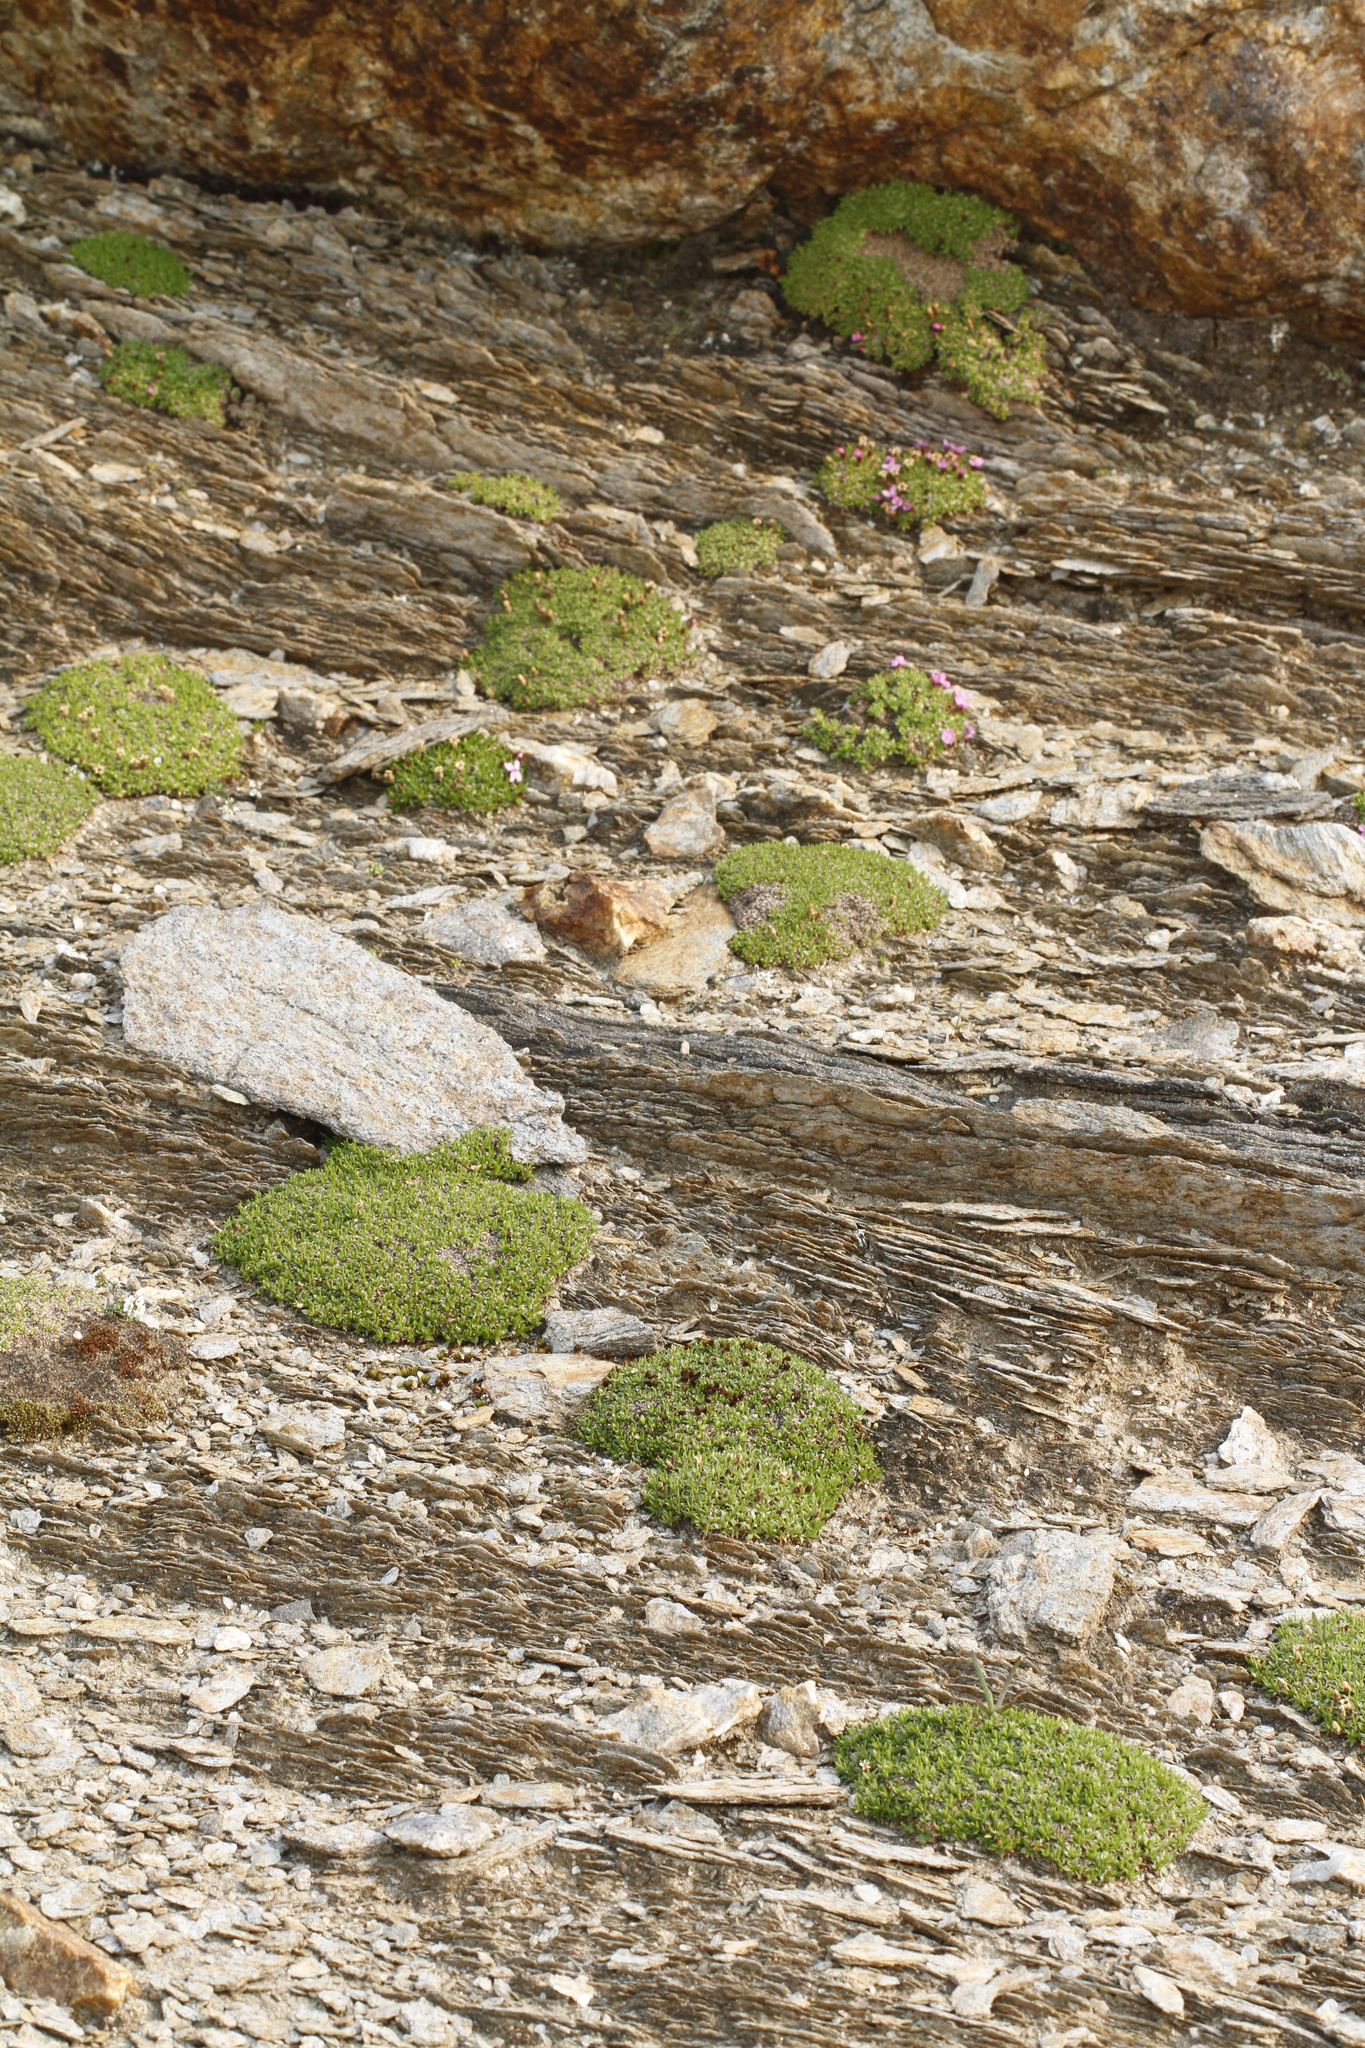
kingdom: Plantae
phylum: Tracheophyta
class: Magnoliopsida
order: Caryophyllales
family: Caryophyllaceae
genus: Silene
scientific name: Silene acaulis
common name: Moss campion
